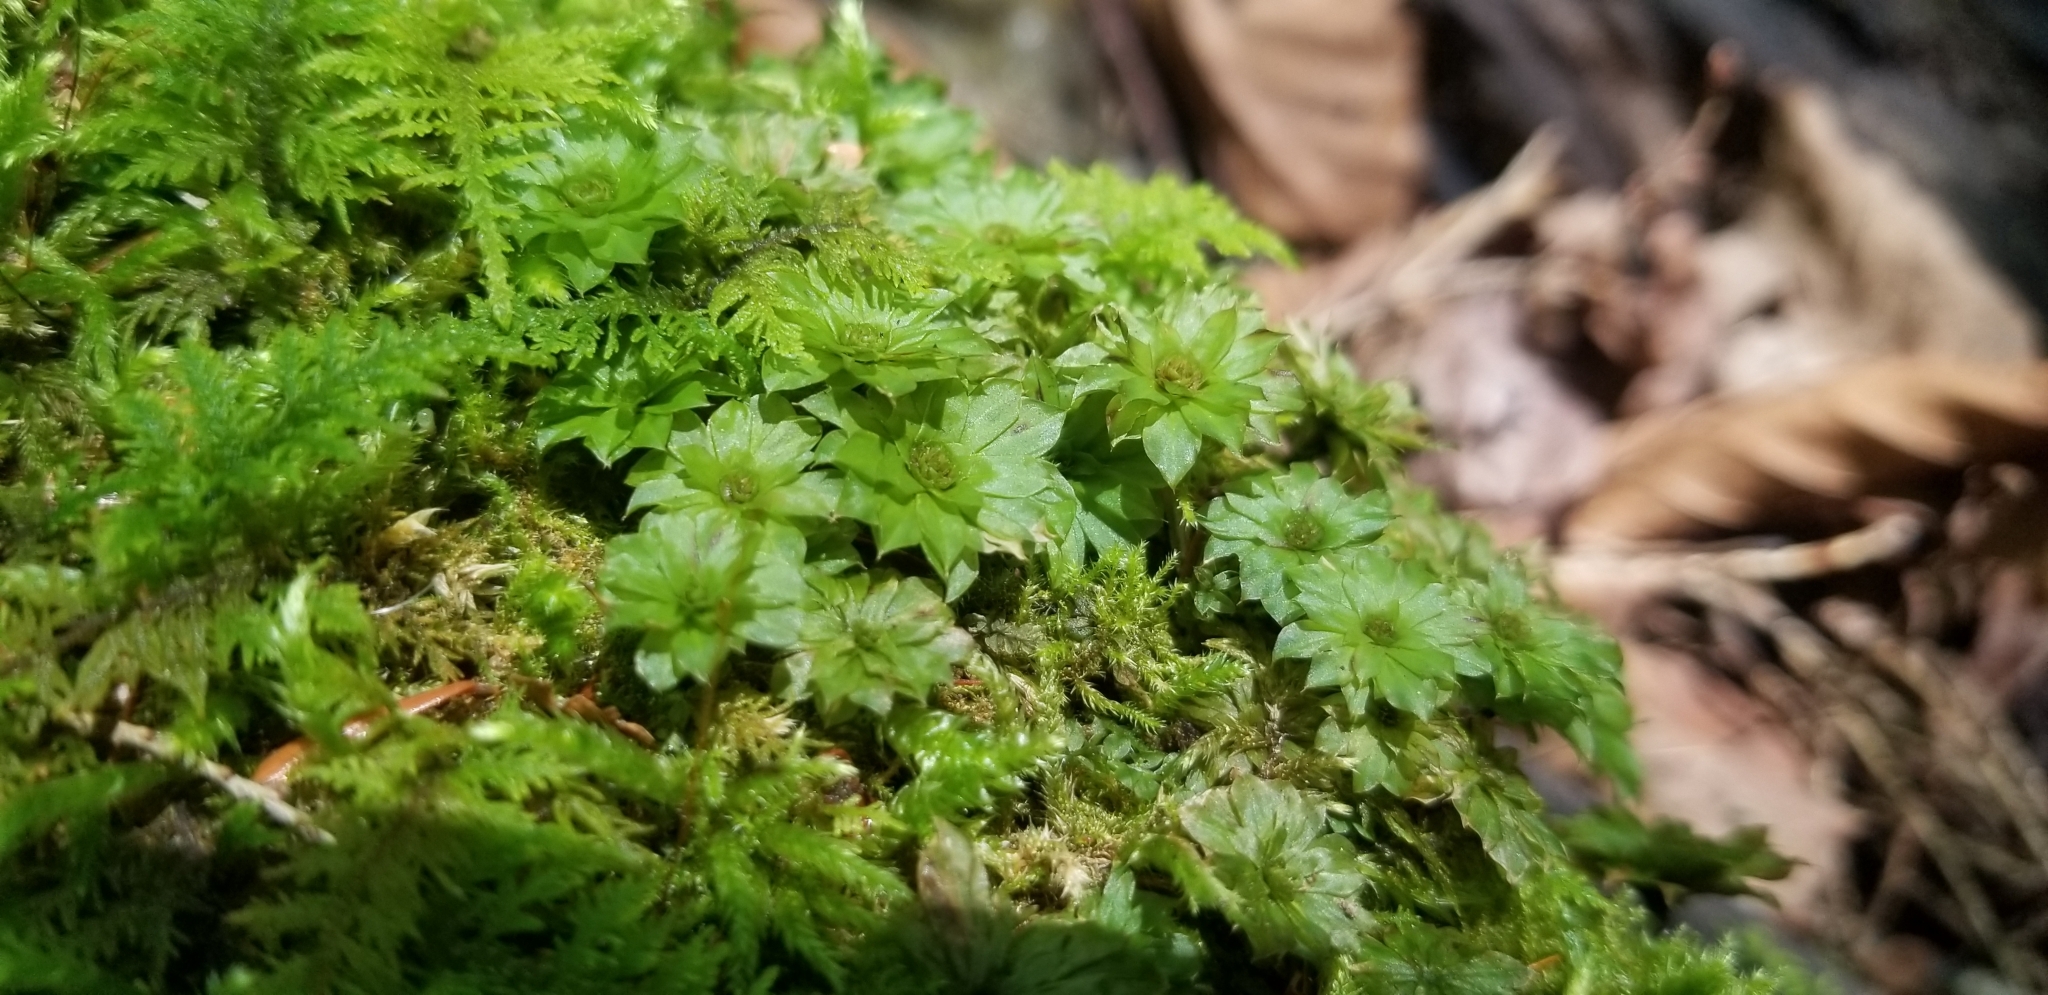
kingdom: Plantae
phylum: Bryophyta
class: Bryopsida
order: Bryales
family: Bryaceae
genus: Rhodobryum
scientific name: Rhodobryum ontariense
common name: Ontario rhodobryum moss
